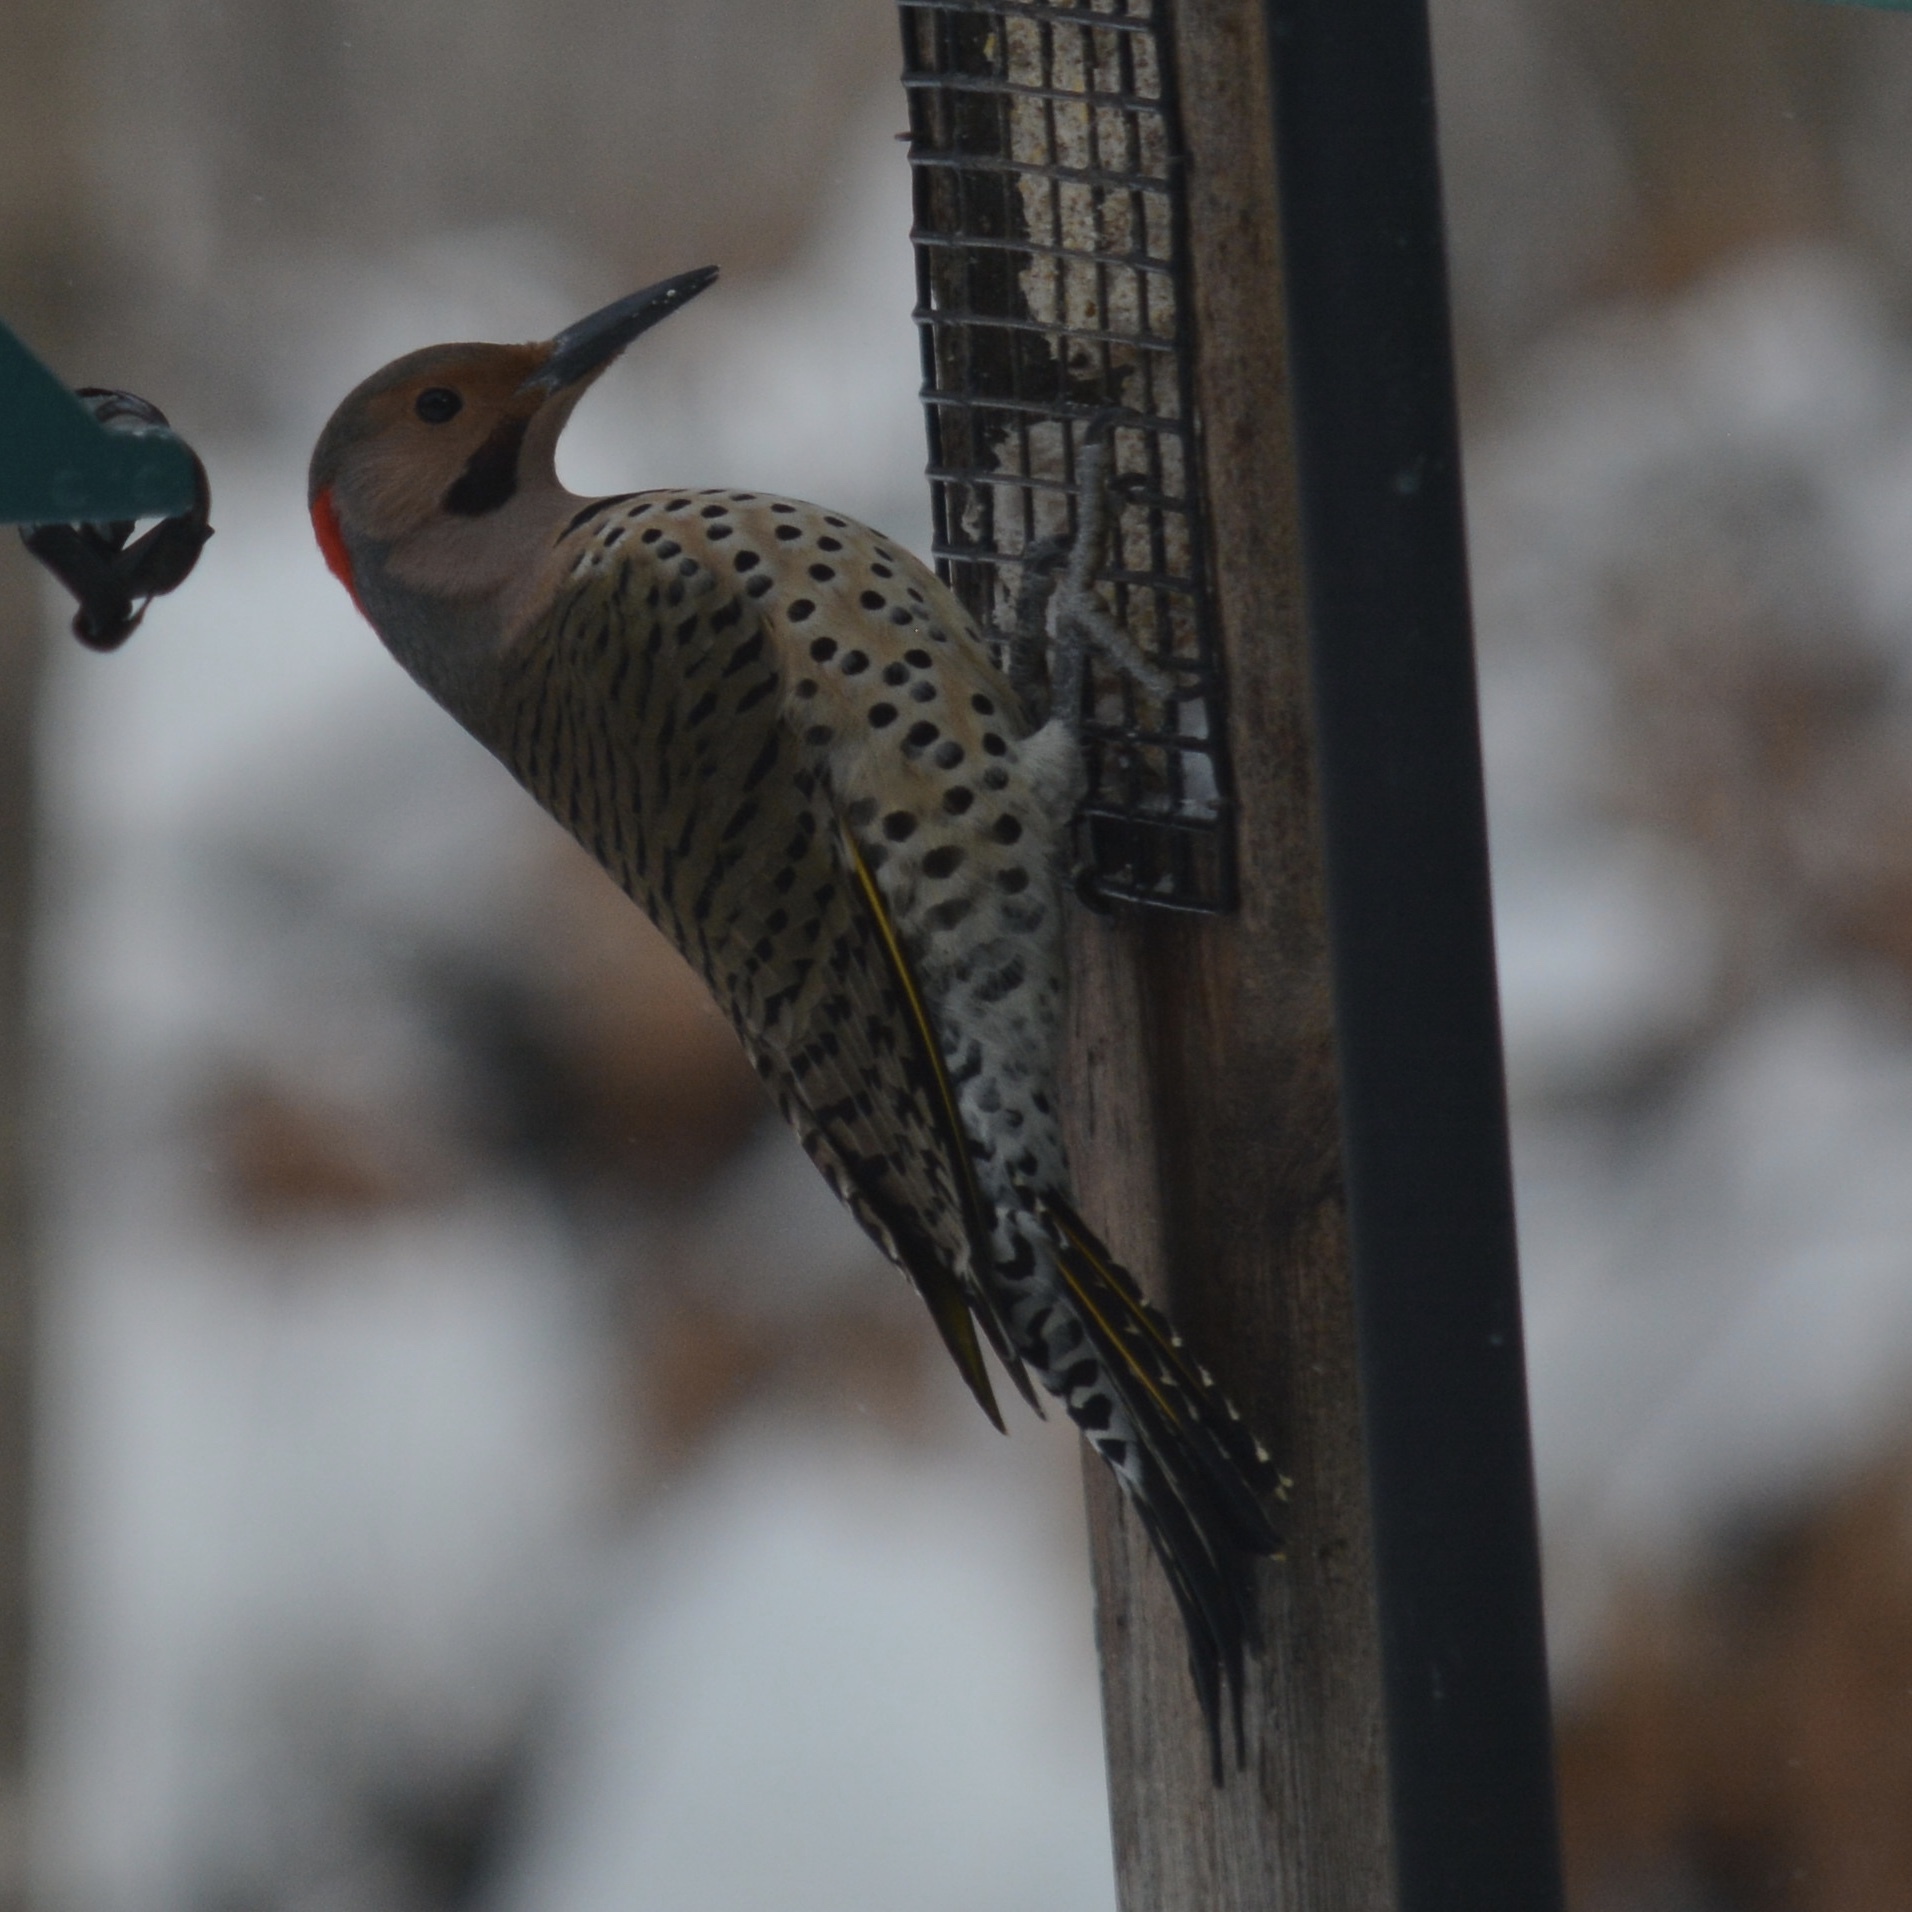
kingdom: Animalia
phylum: Chordata
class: Aves
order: Piciformes
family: Picidae
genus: Colaptes
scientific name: Colaptes auratus
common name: Northern flicker
